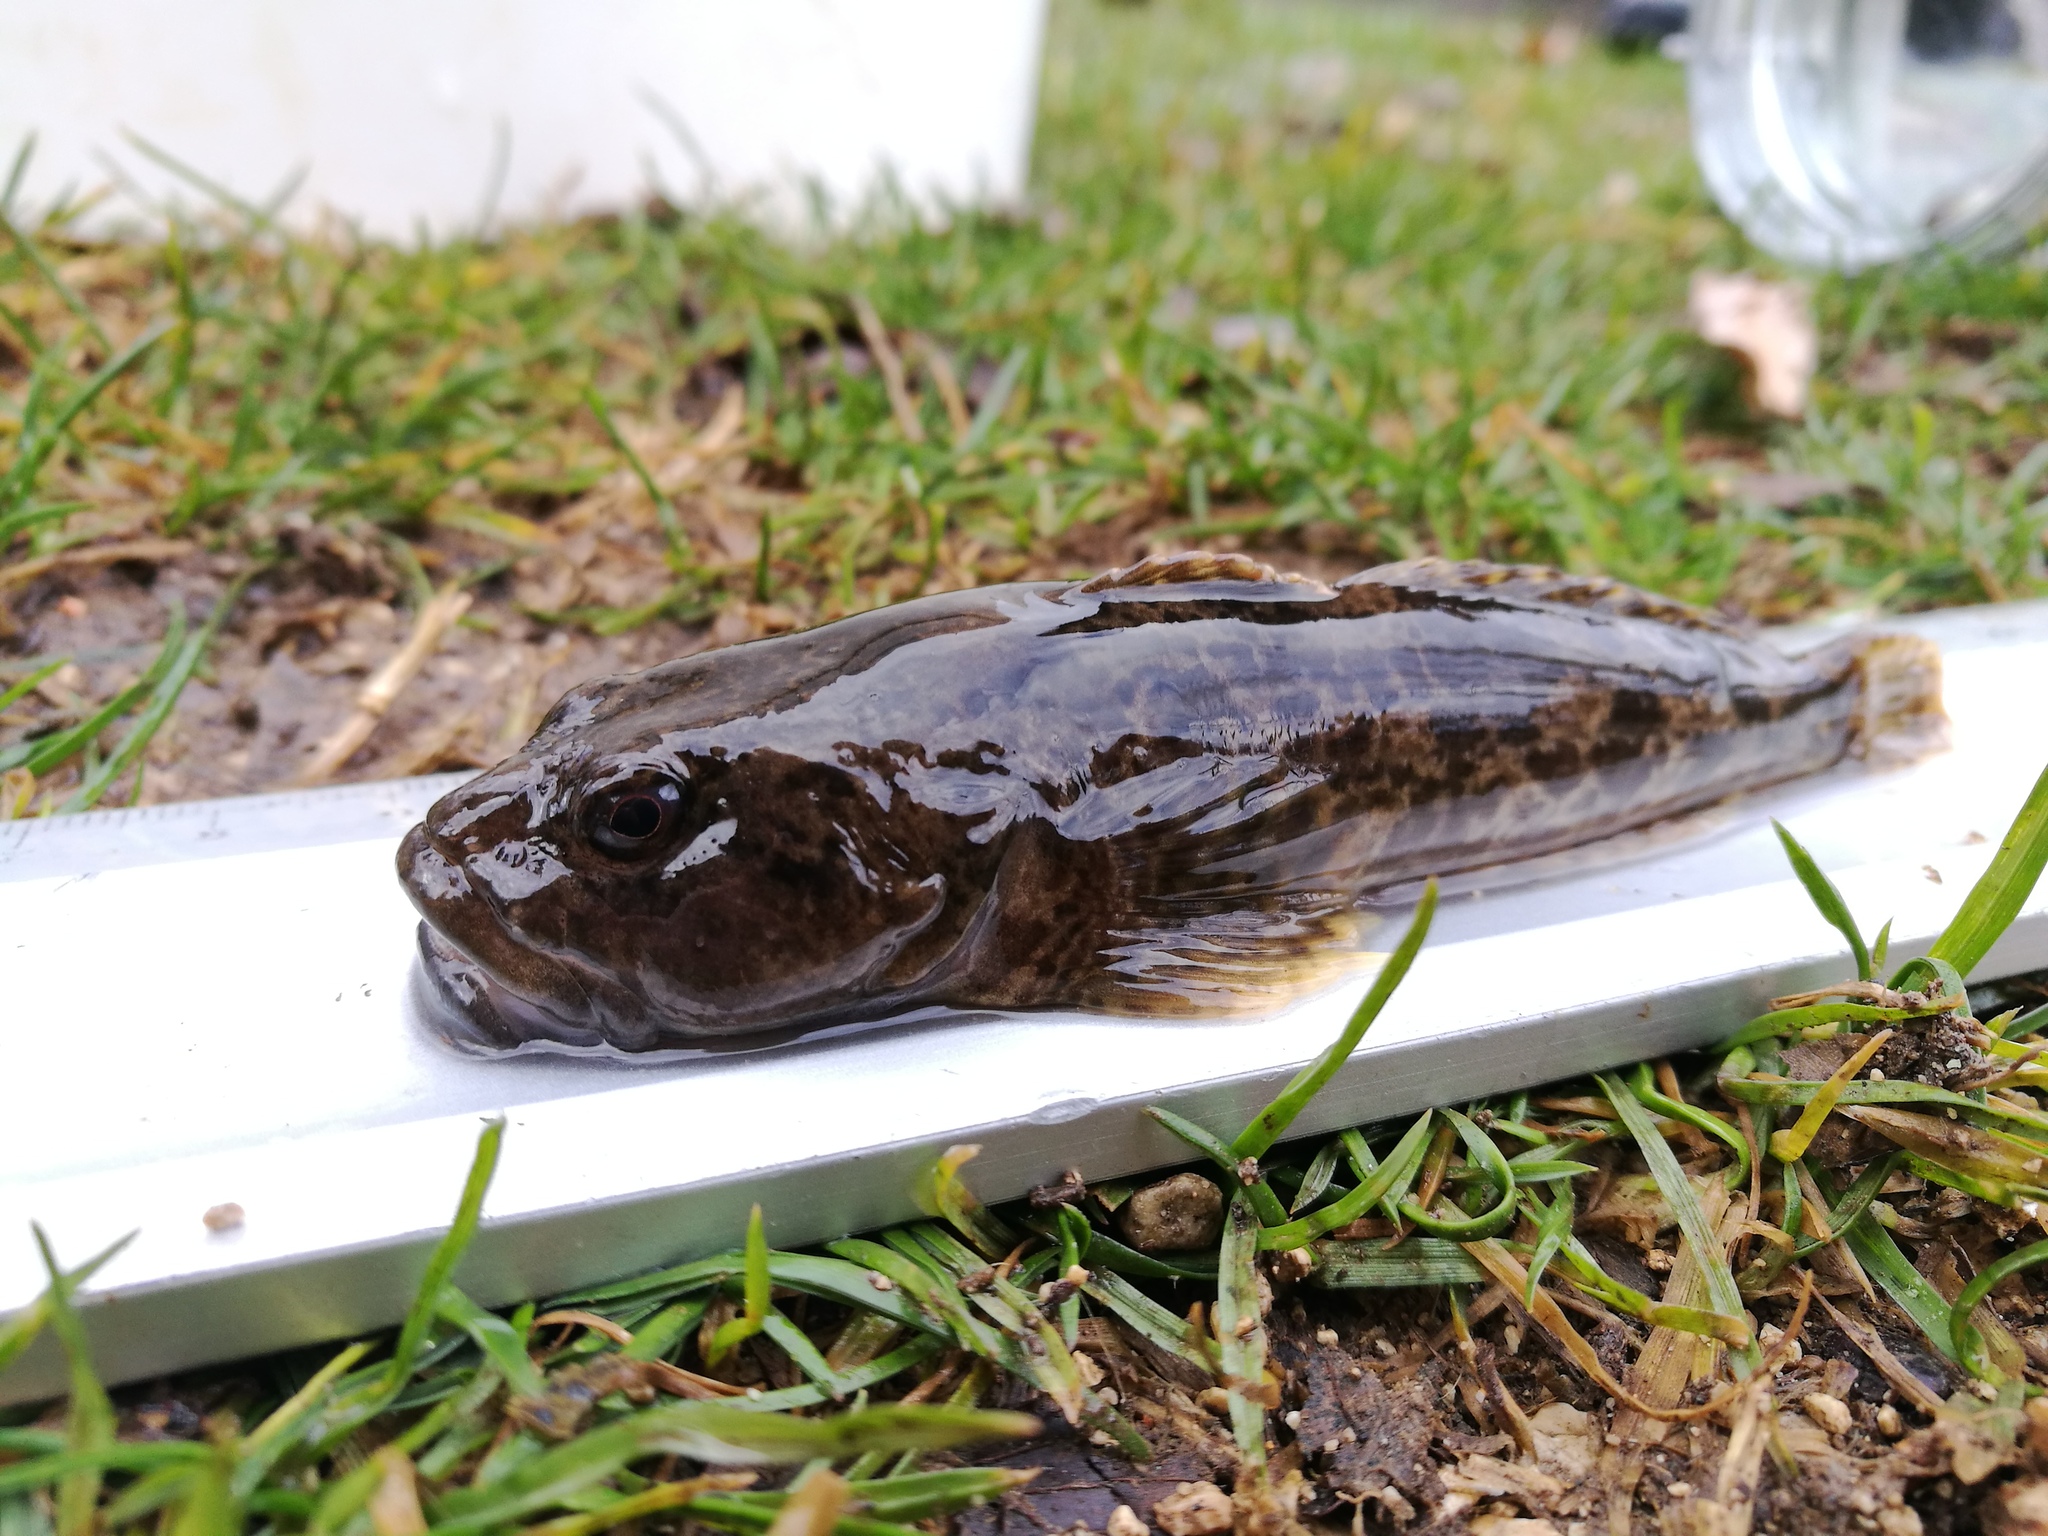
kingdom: Animalia
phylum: Chordata
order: Scorpaeniformes
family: Cottidae
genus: Cottus
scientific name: Cottus gobio
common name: Bullhead
